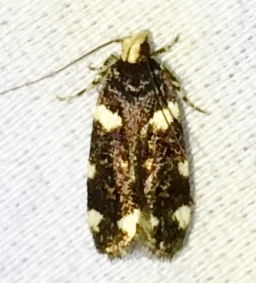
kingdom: Animalia
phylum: Arthropoda
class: Insecta
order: Lepidoptera
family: Gelechiidae
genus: Fascista
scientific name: Fascista cercerisella
